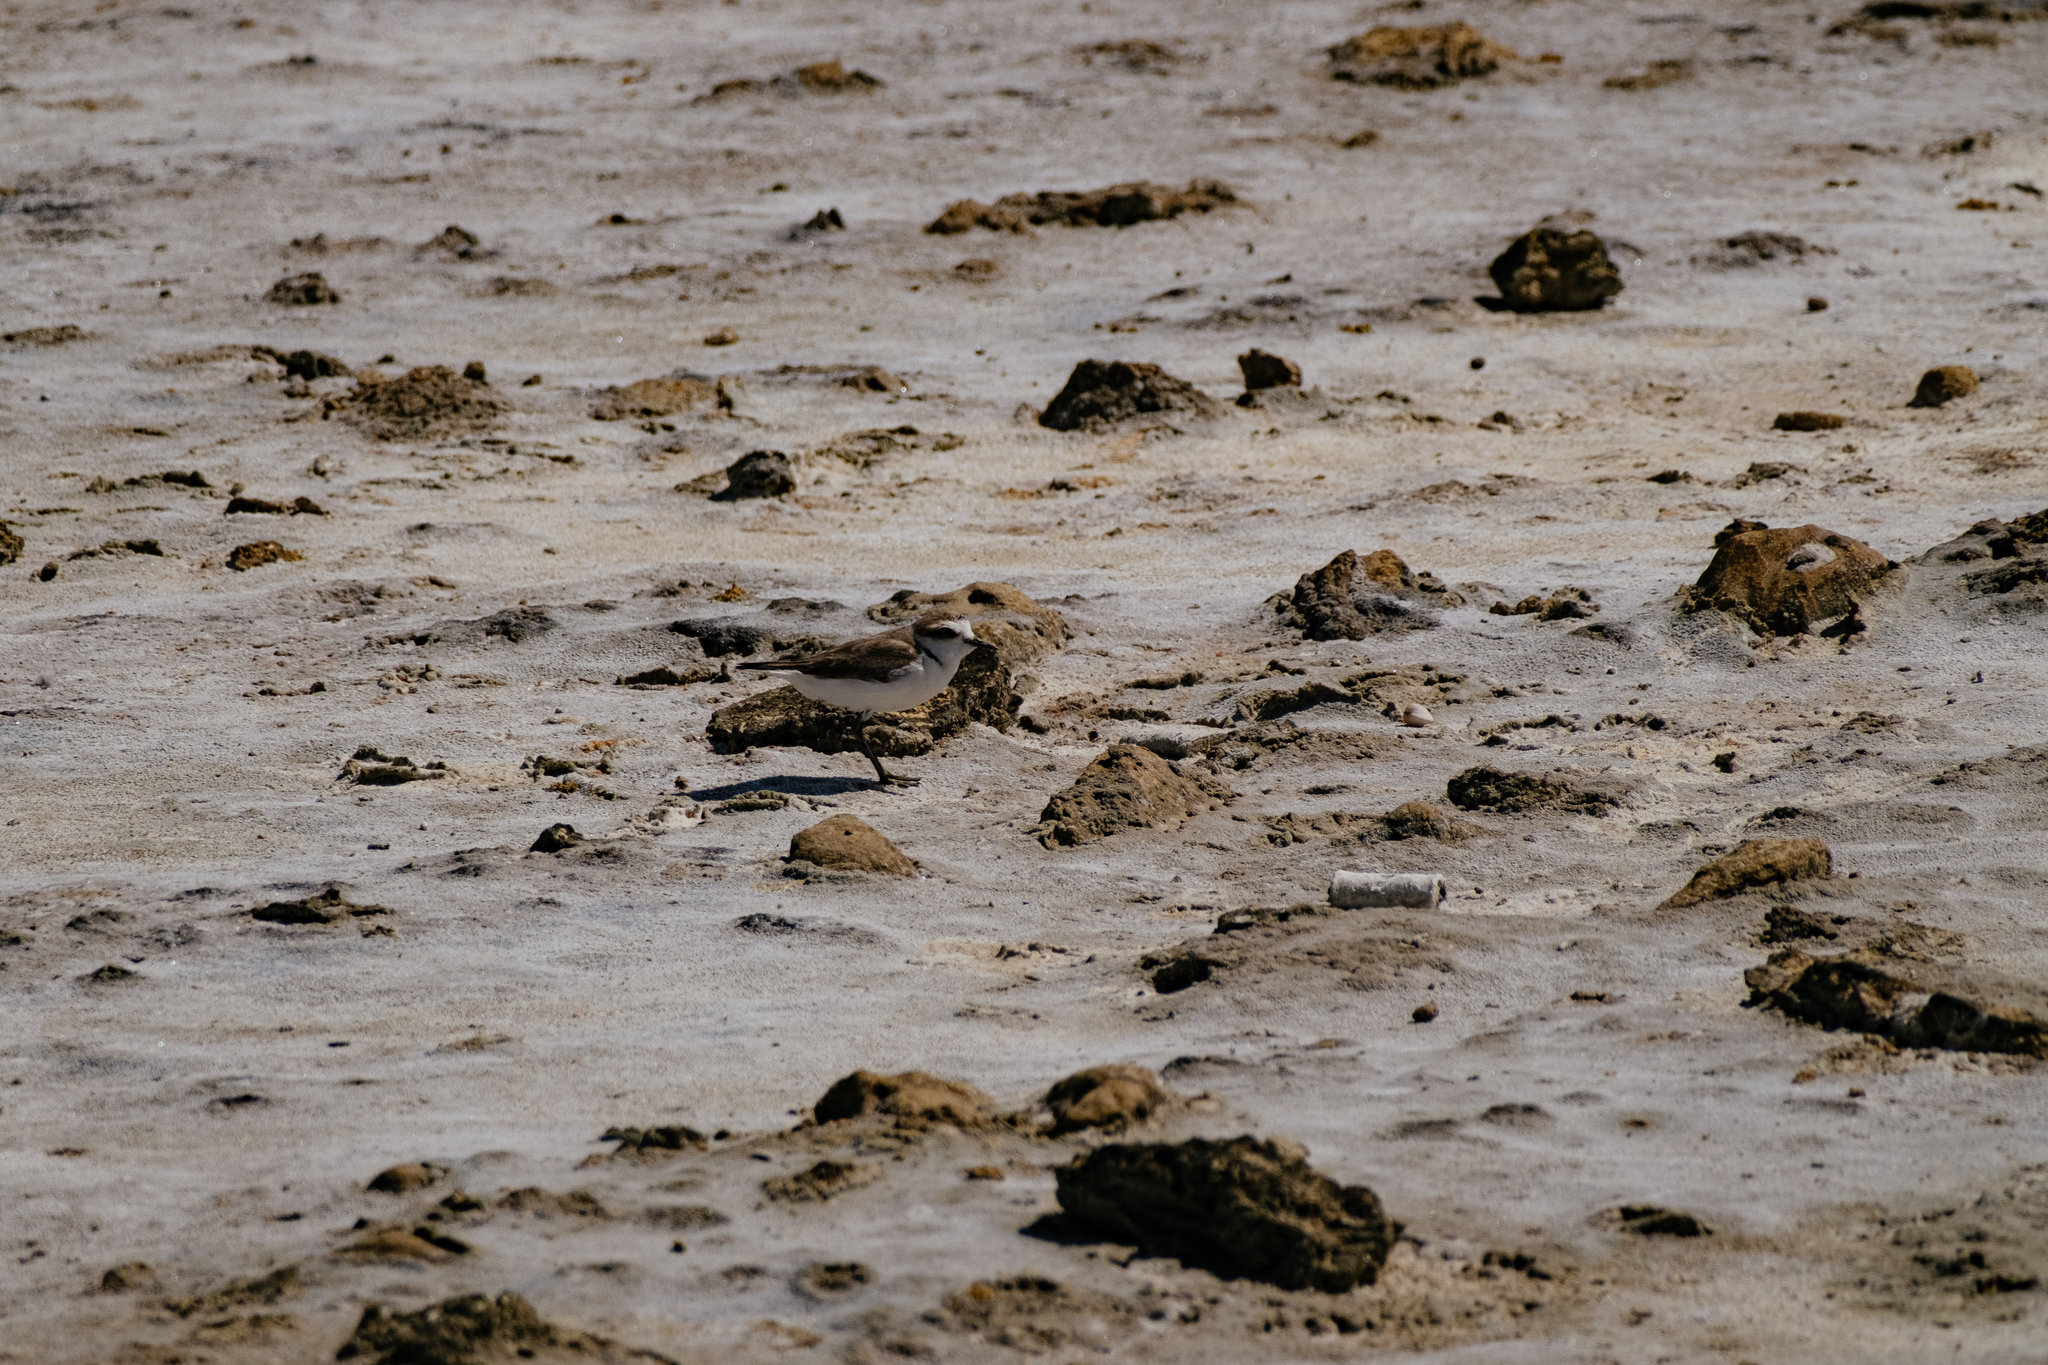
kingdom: Animalia
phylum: Chordata
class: Aves
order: Charadriiformes
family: Charadriidae
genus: Charadrius
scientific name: Charadrius alexandrinus
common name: Kentish plover
